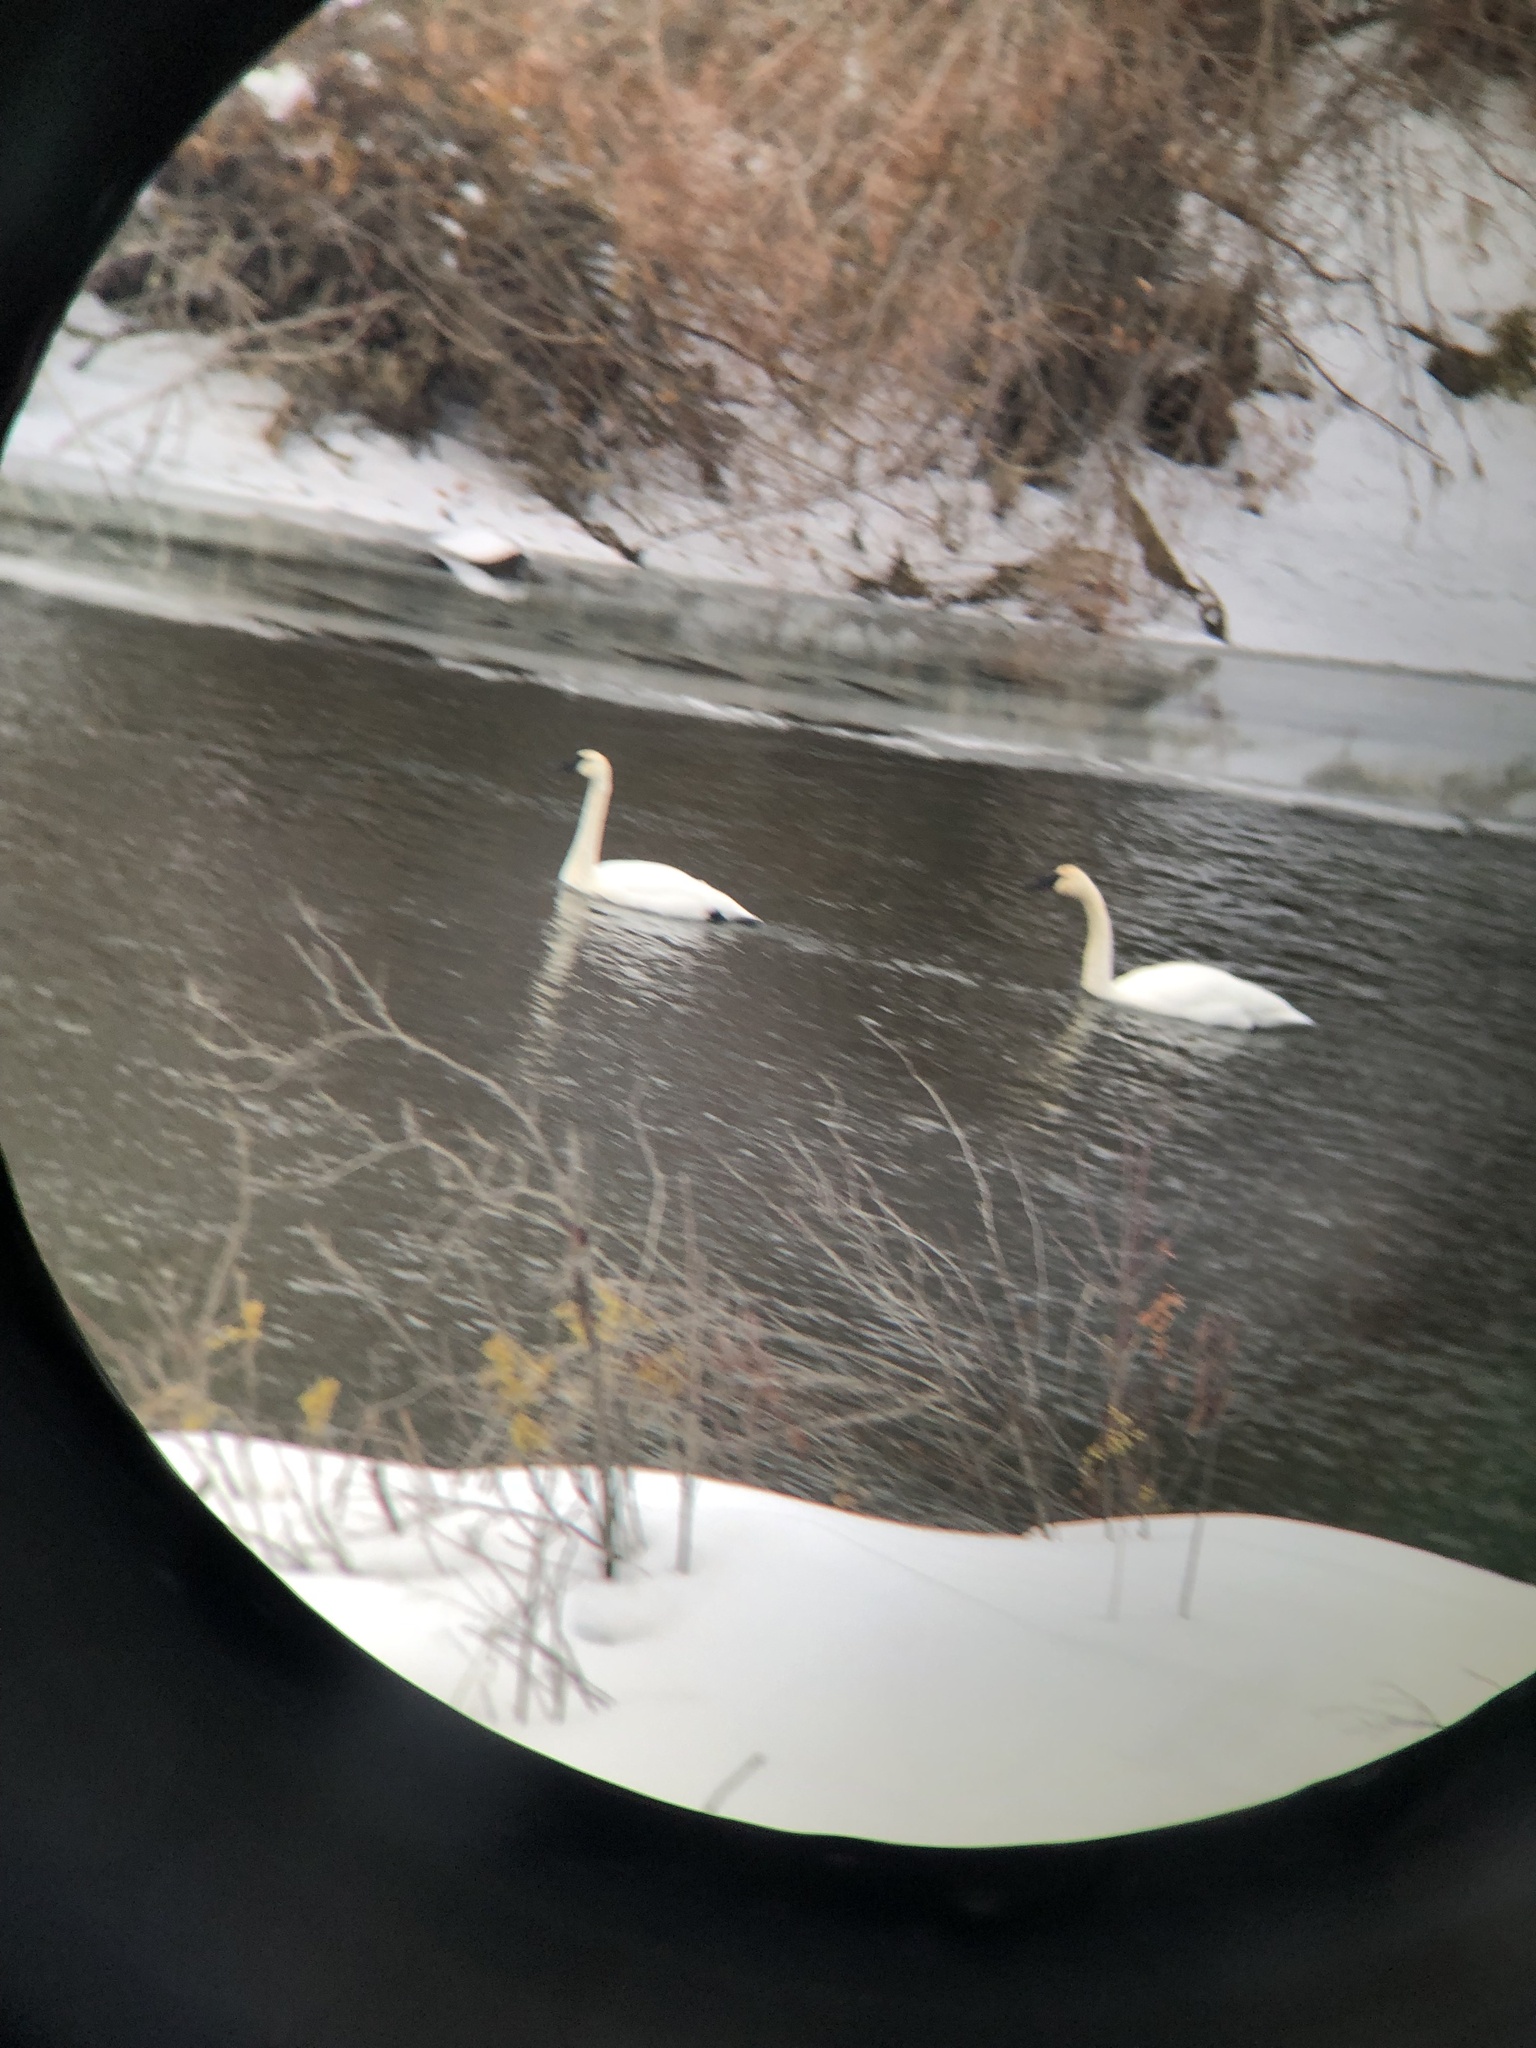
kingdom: Animalia
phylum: Chordata
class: Aves
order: Anseriformes
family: Anatidae
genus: Cygnus
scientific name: Cygnus buccinator
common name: Trumpeter swan
